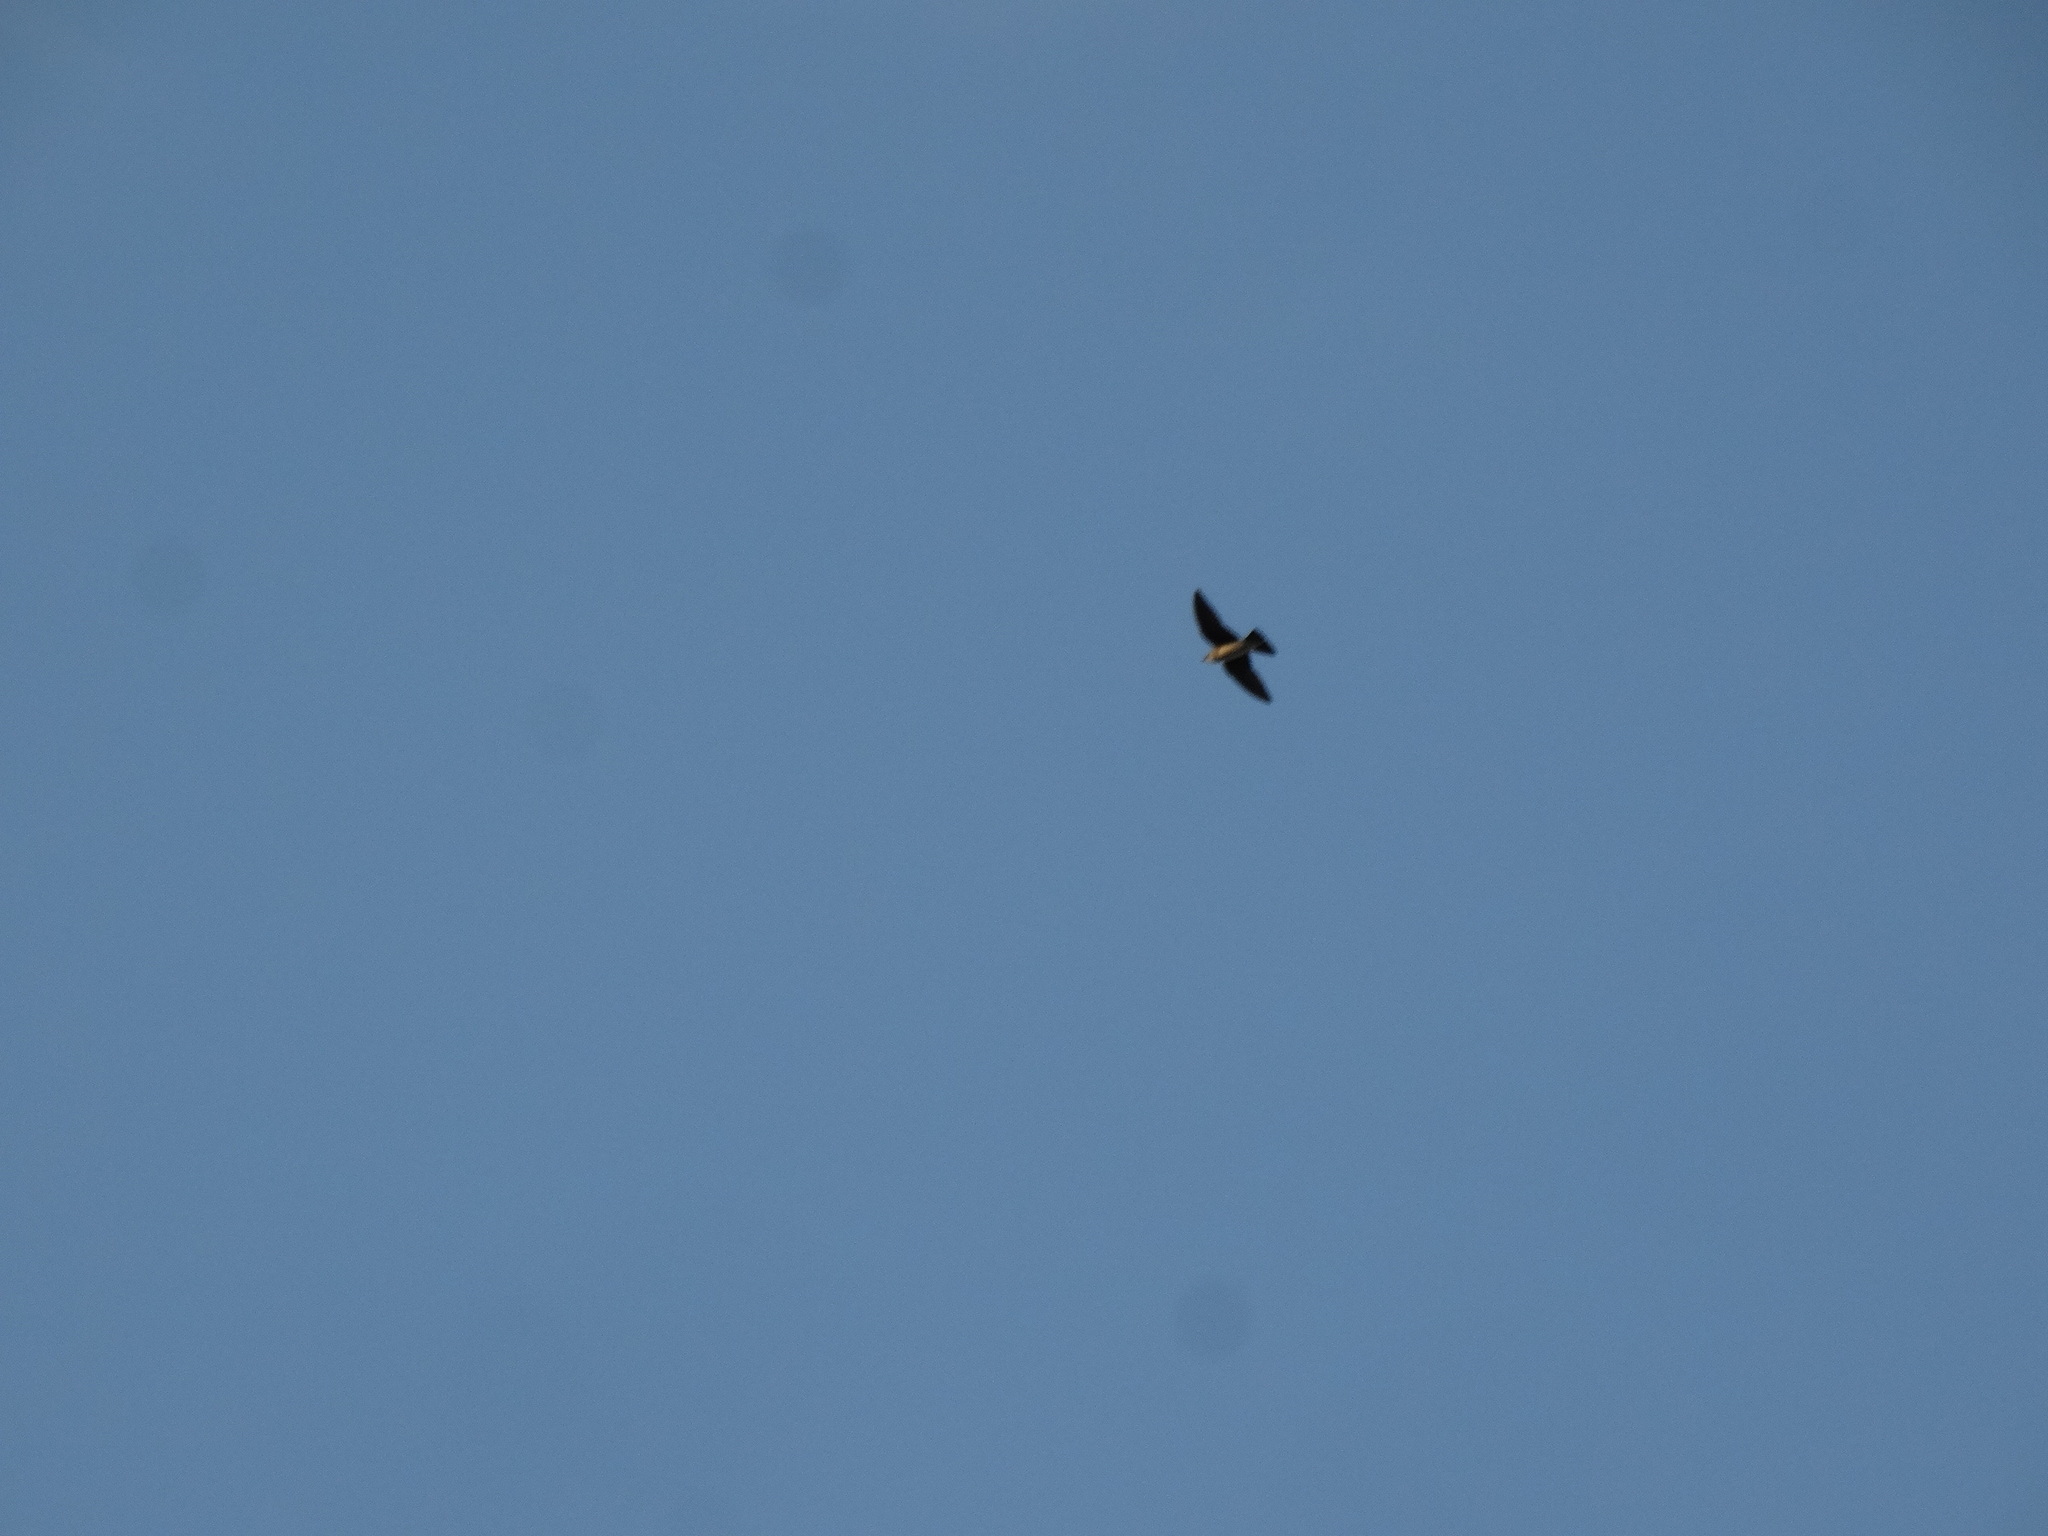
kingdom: Animalia
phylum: Chordata
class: Aves
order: Passeriformes
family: Hirundinidae
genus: Progne
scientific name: Progne tapera
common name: Brown-chested martin
